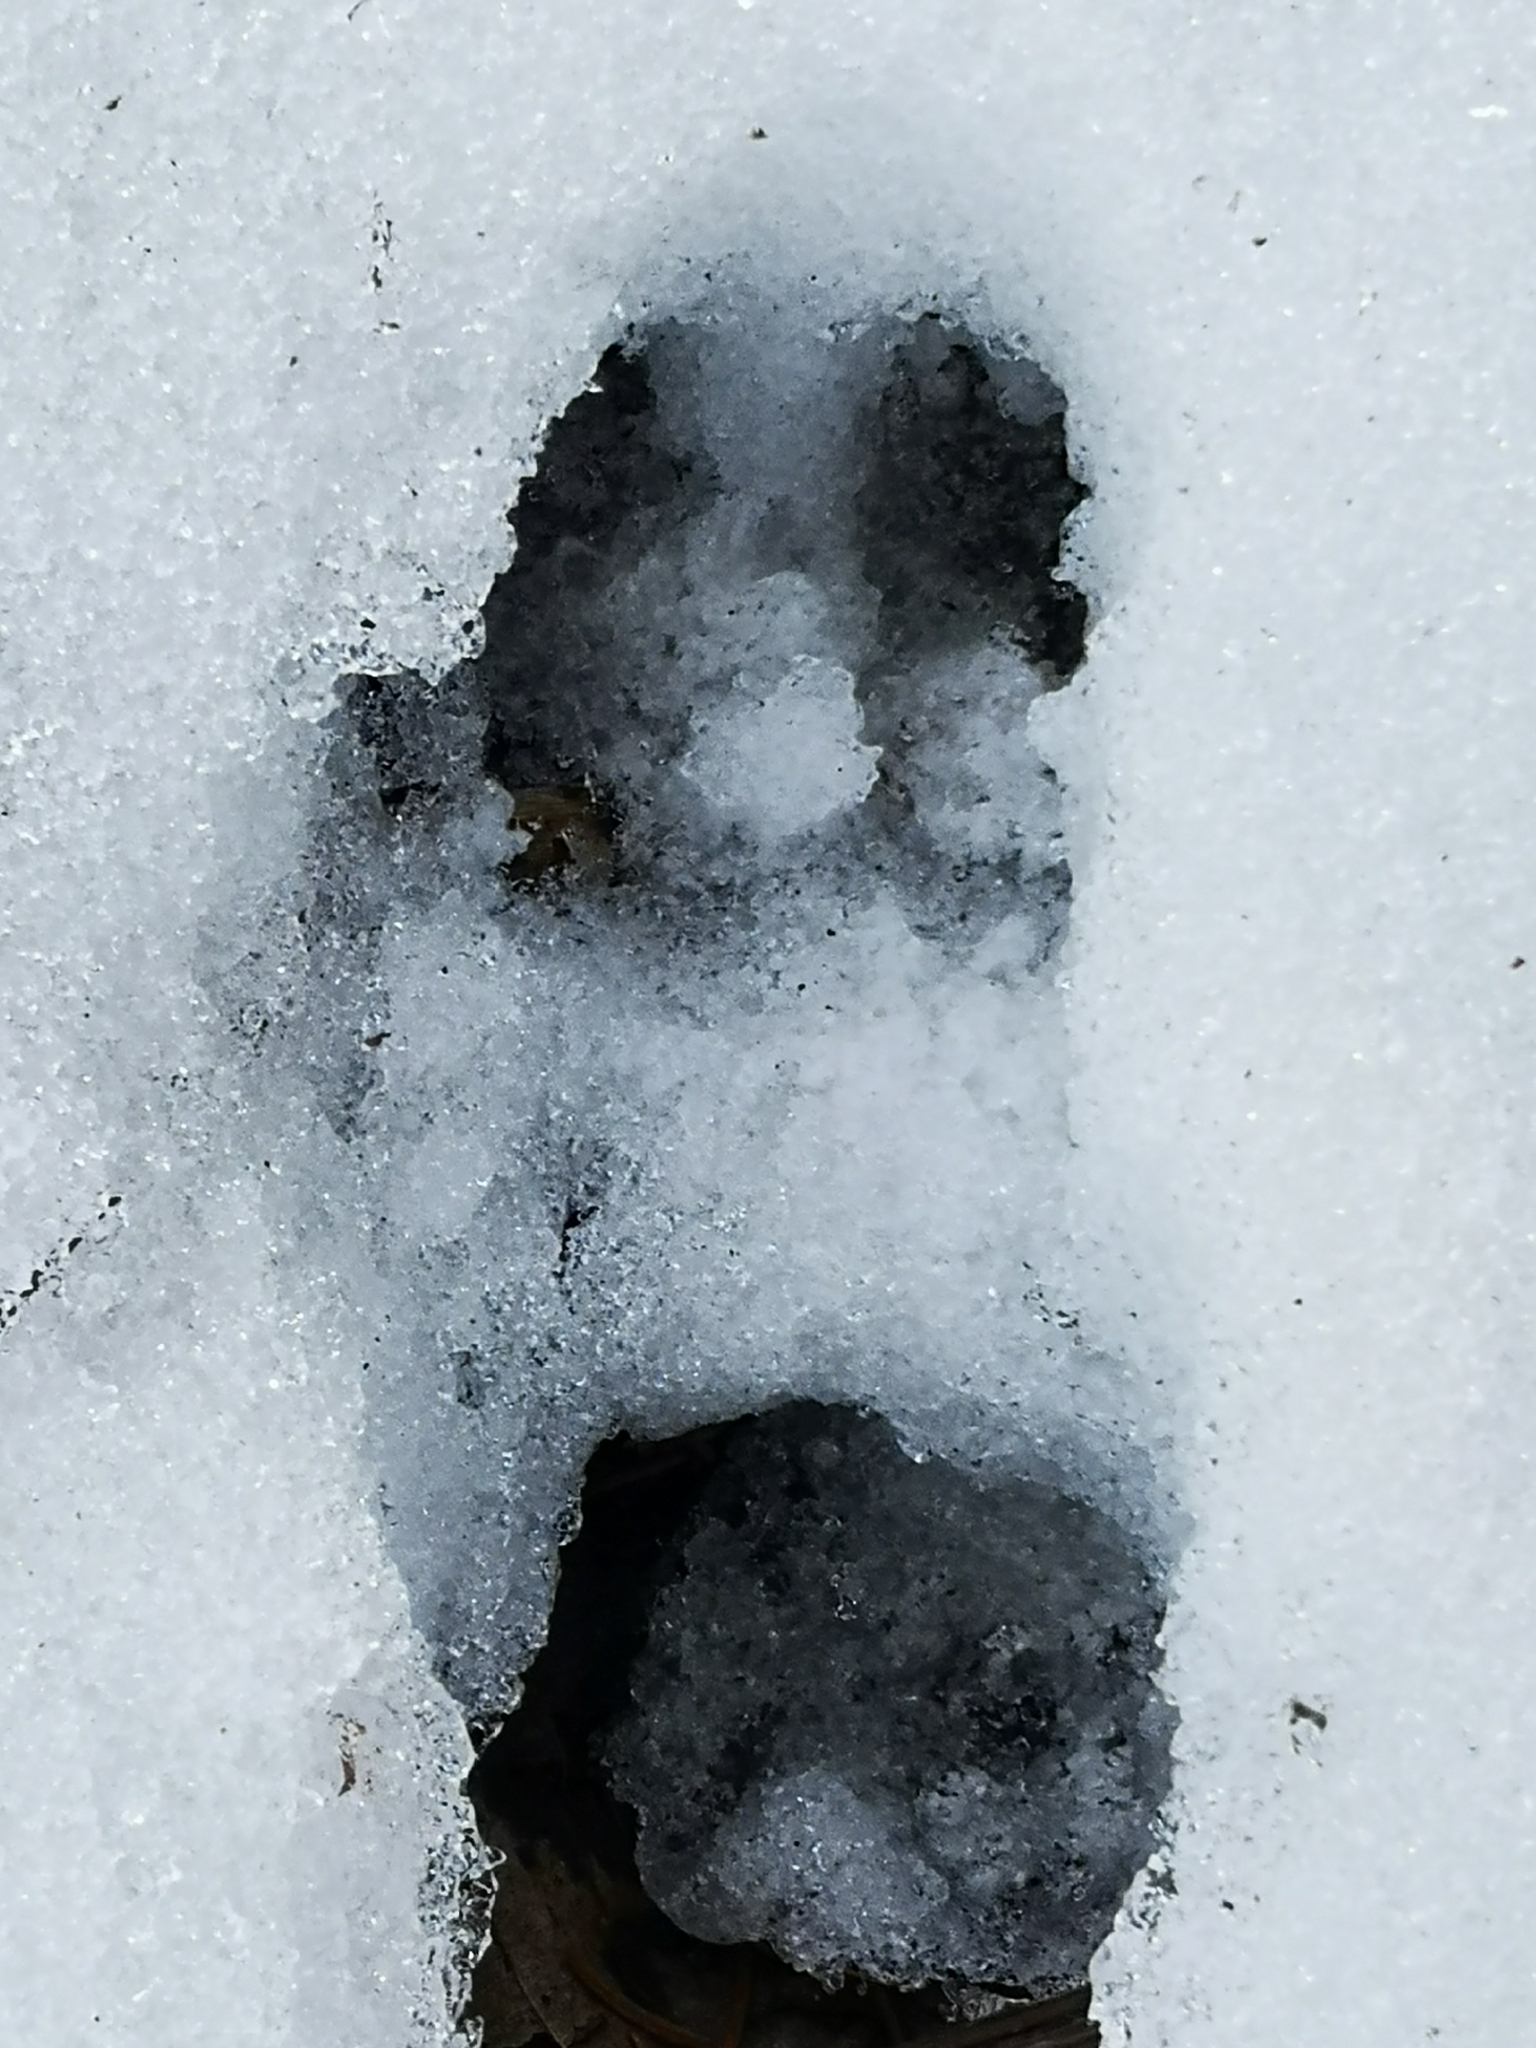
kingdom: Animalia
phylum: Chordata
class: Mammalia
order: Artiodactyla
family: Cervidae
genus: Capreolus
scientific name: Capreolus capreolus
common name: Western roe deer
